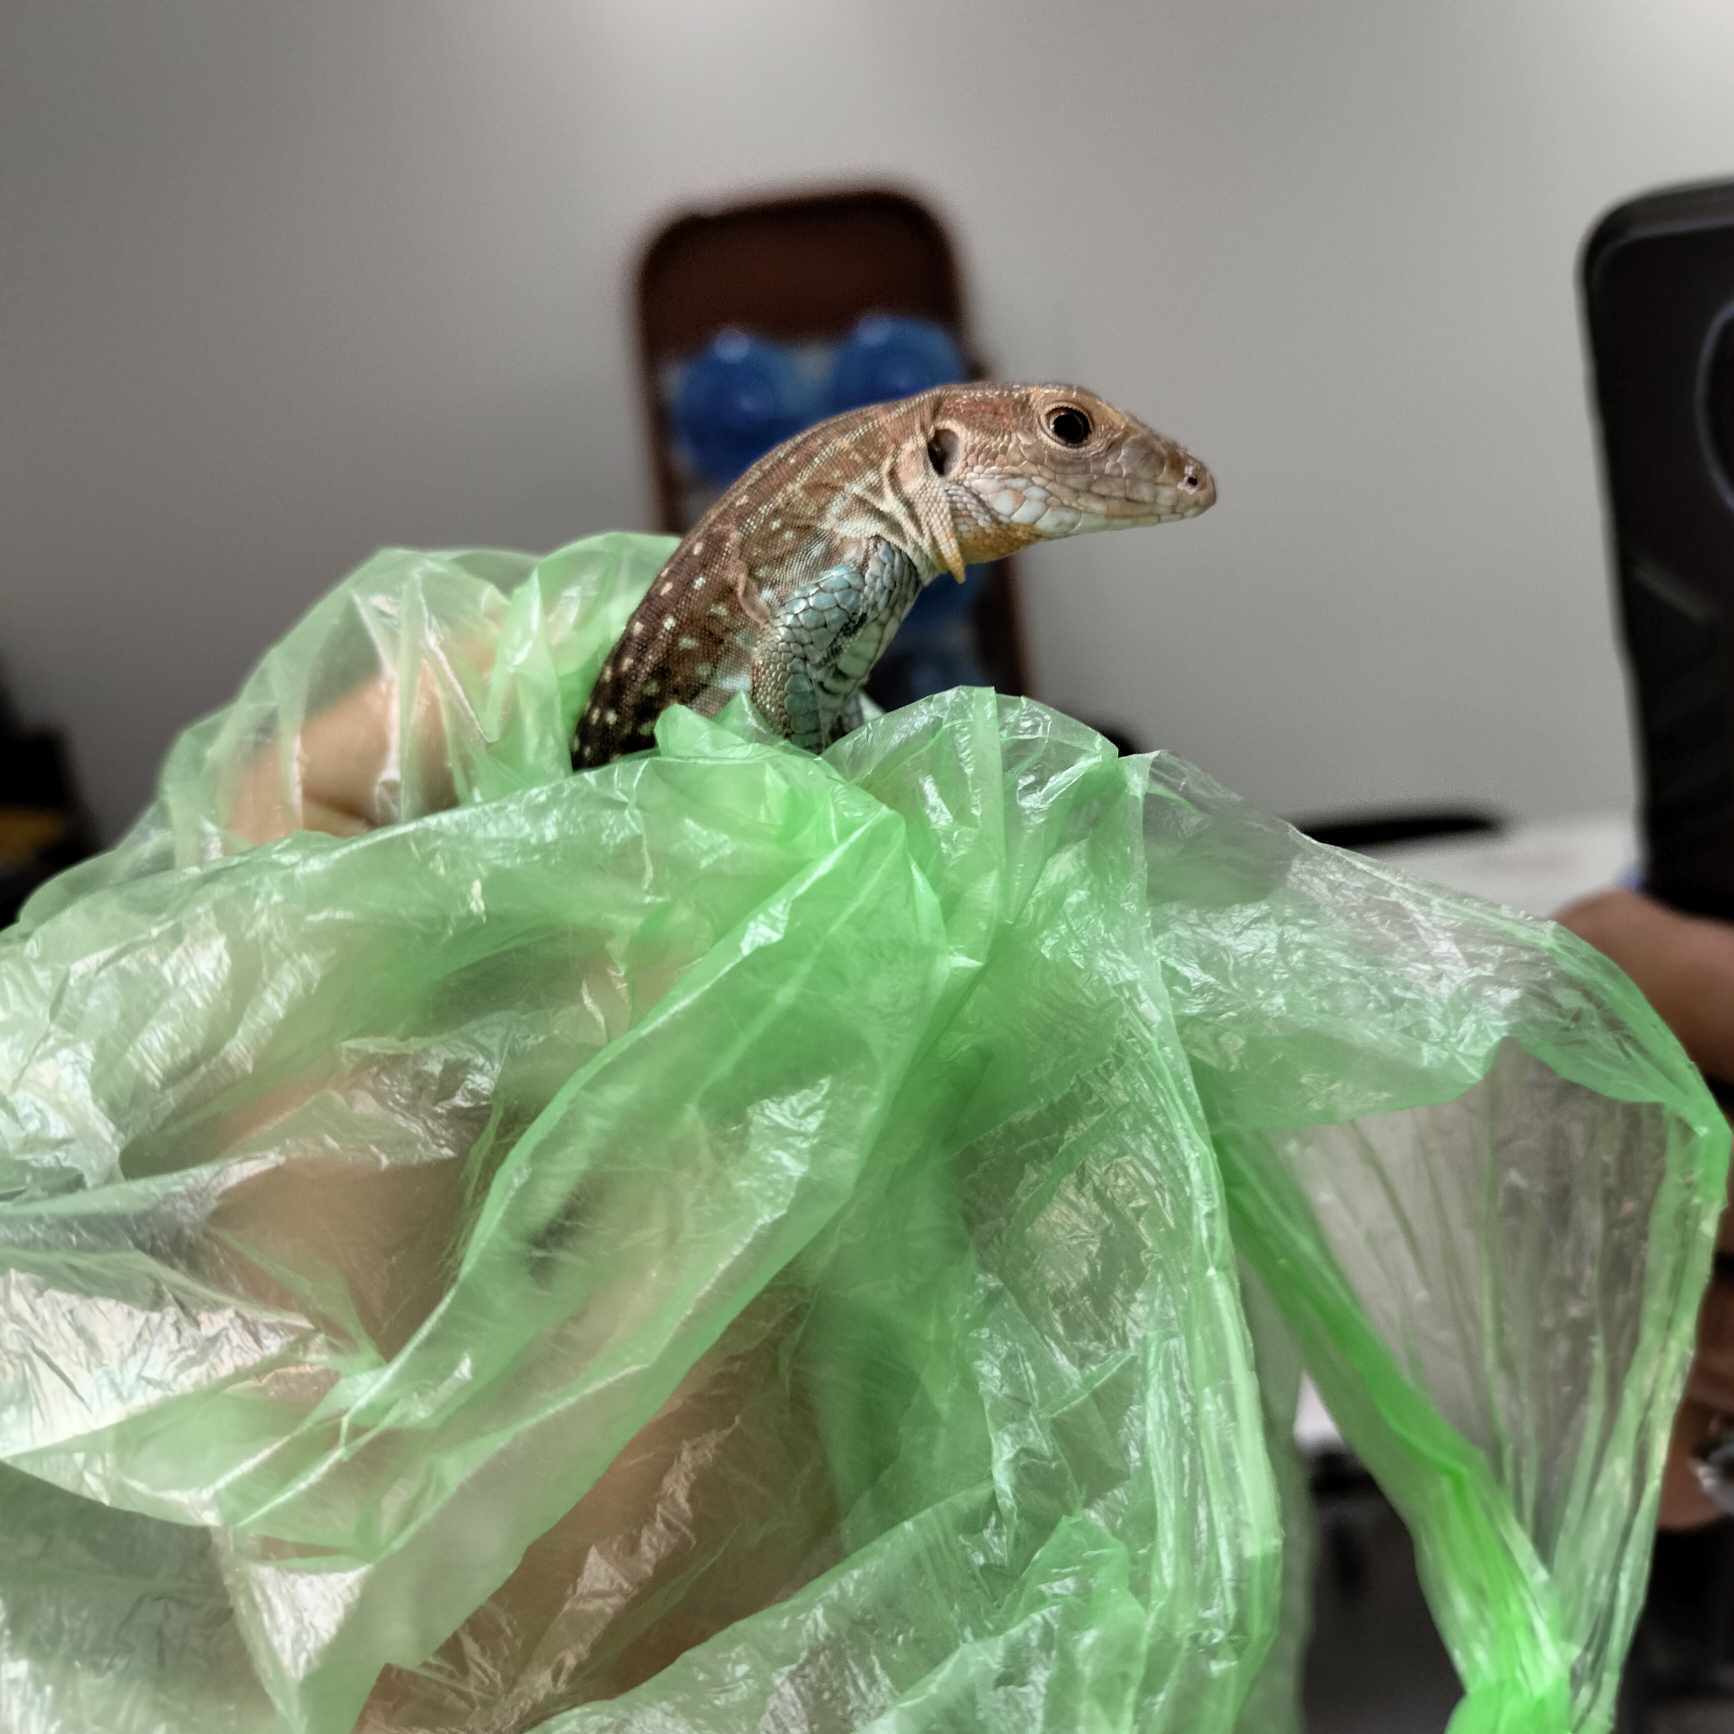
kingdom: Animalia
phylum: Chordata
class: Squamata
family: Teiidae
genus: Aspidoscelis
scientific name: Aspidoscelis gularis
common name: Eastern spotted whiptail
